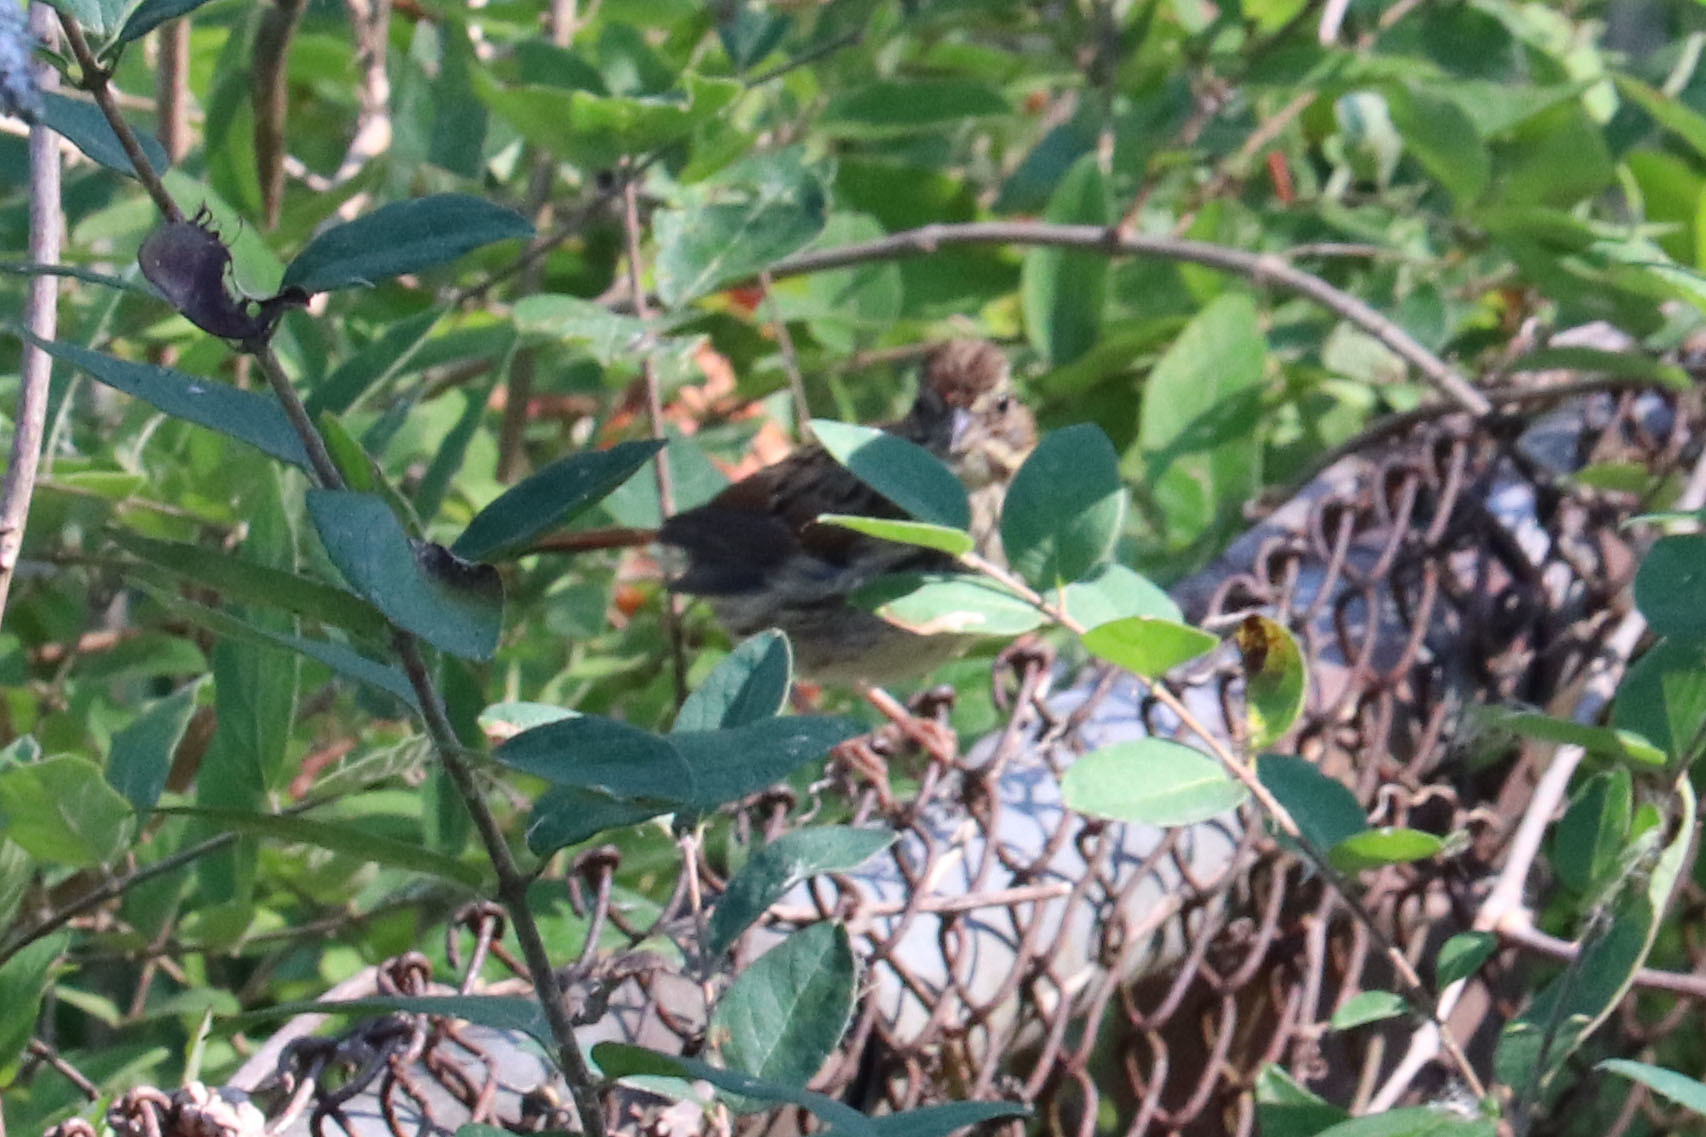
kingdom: Animalia
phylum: Chordata
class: Aves
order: Passeriformes
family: Passerellidae
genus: Melospiza
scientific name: Melospiza melodia
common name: Song sparrow
